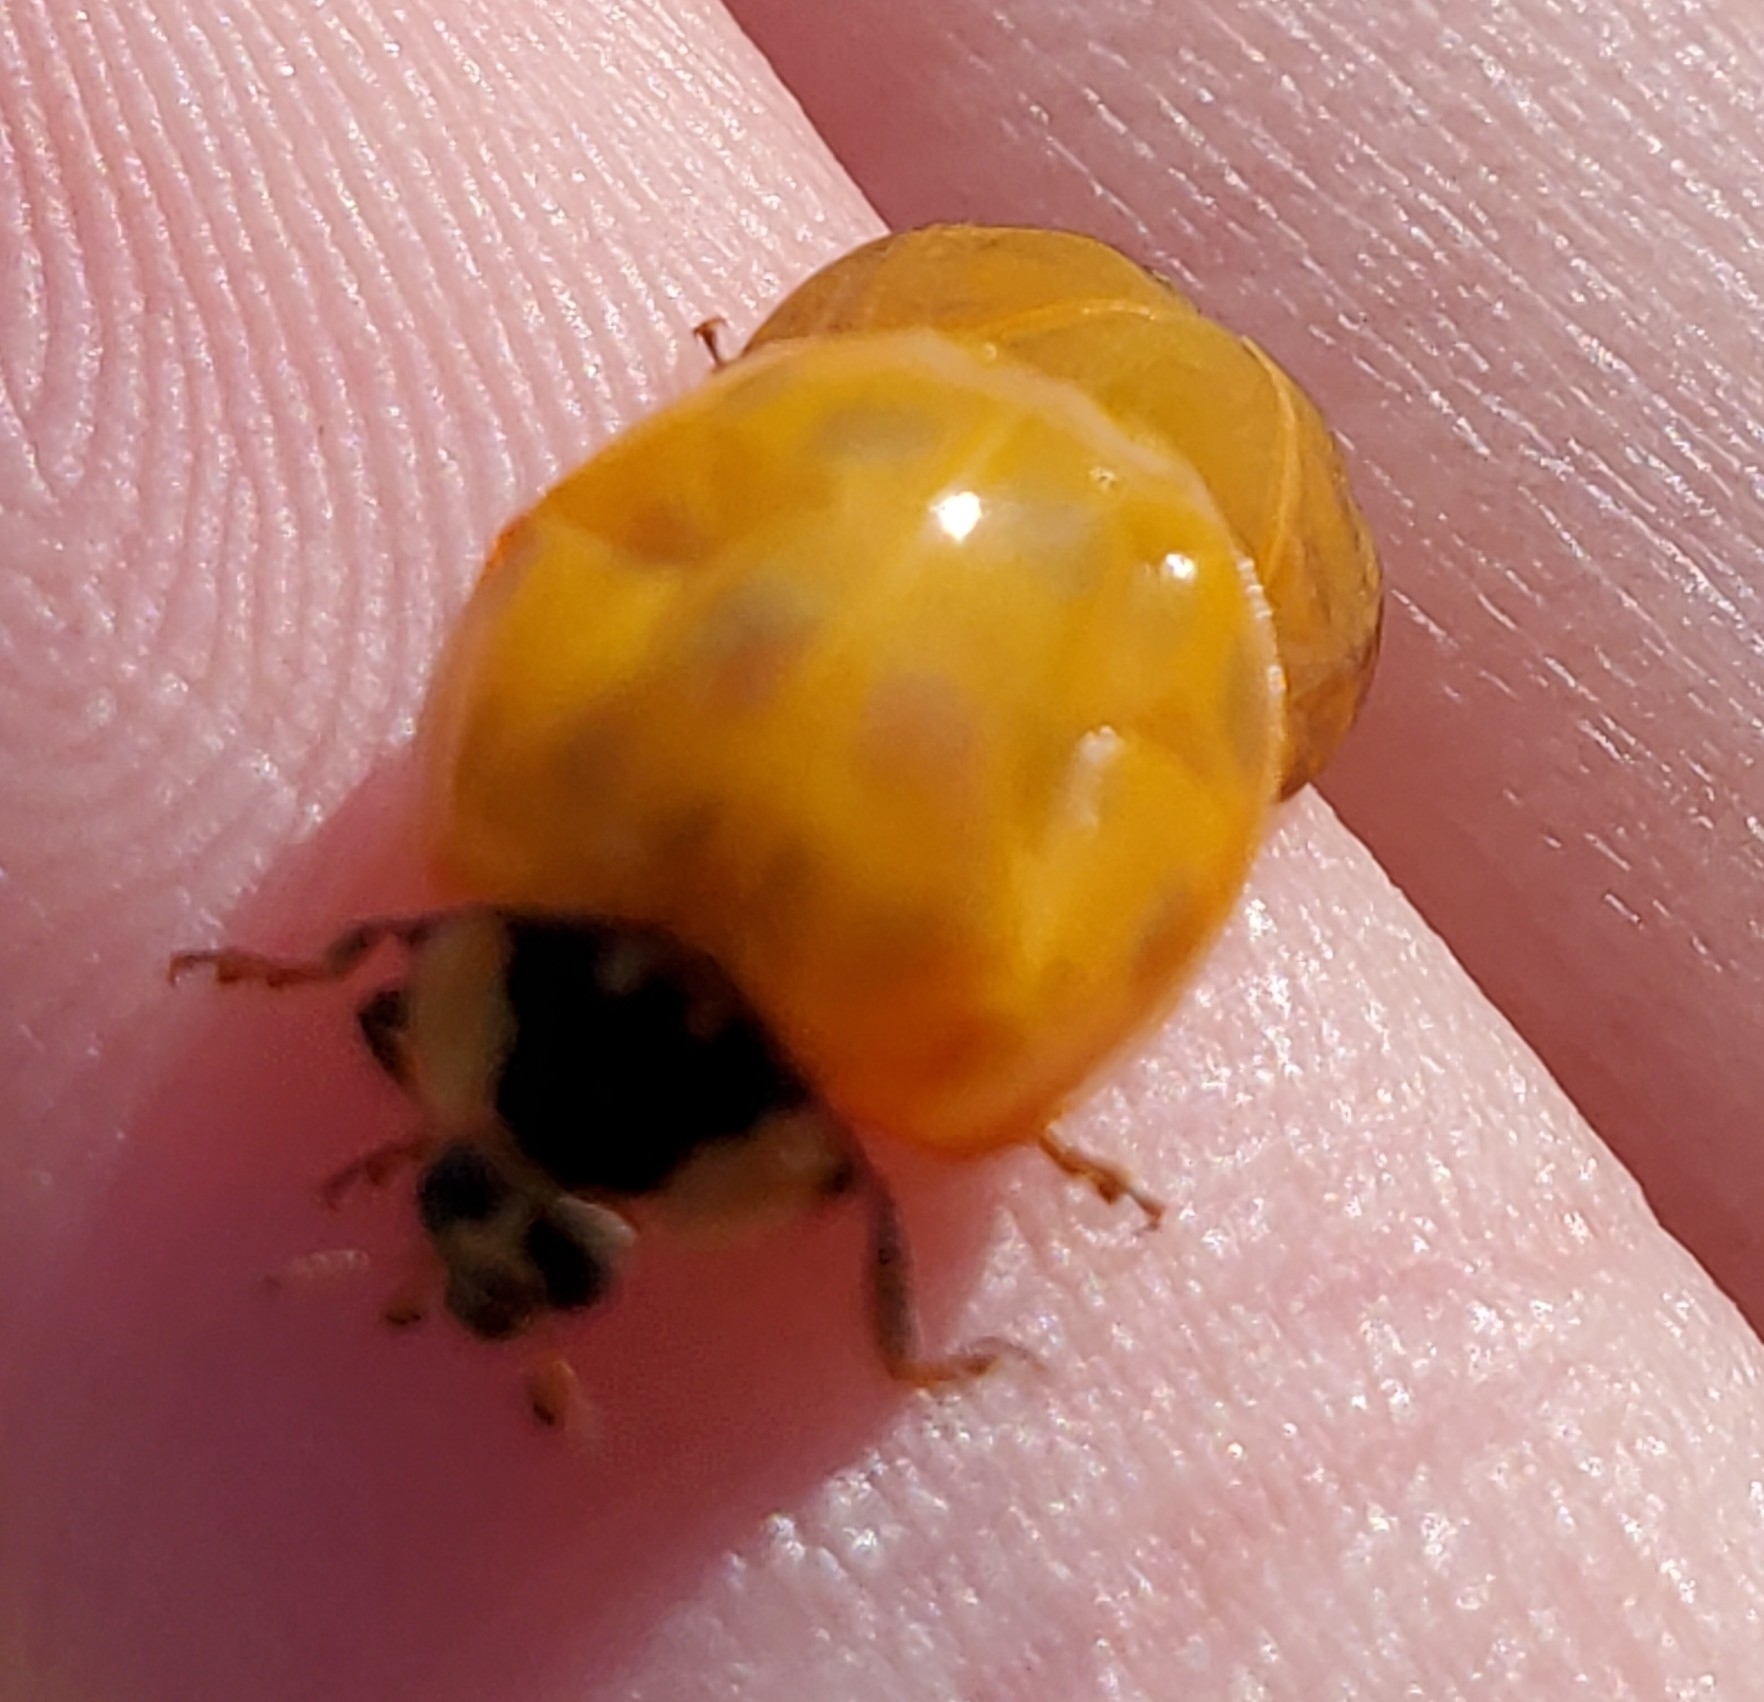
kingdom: Animalia
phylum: Arthropoda
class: Insecta
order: Coleoptera
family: Coccinellidae
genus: Harmonia
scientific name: Harmonia axyridis
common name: Harlequin ladybird
